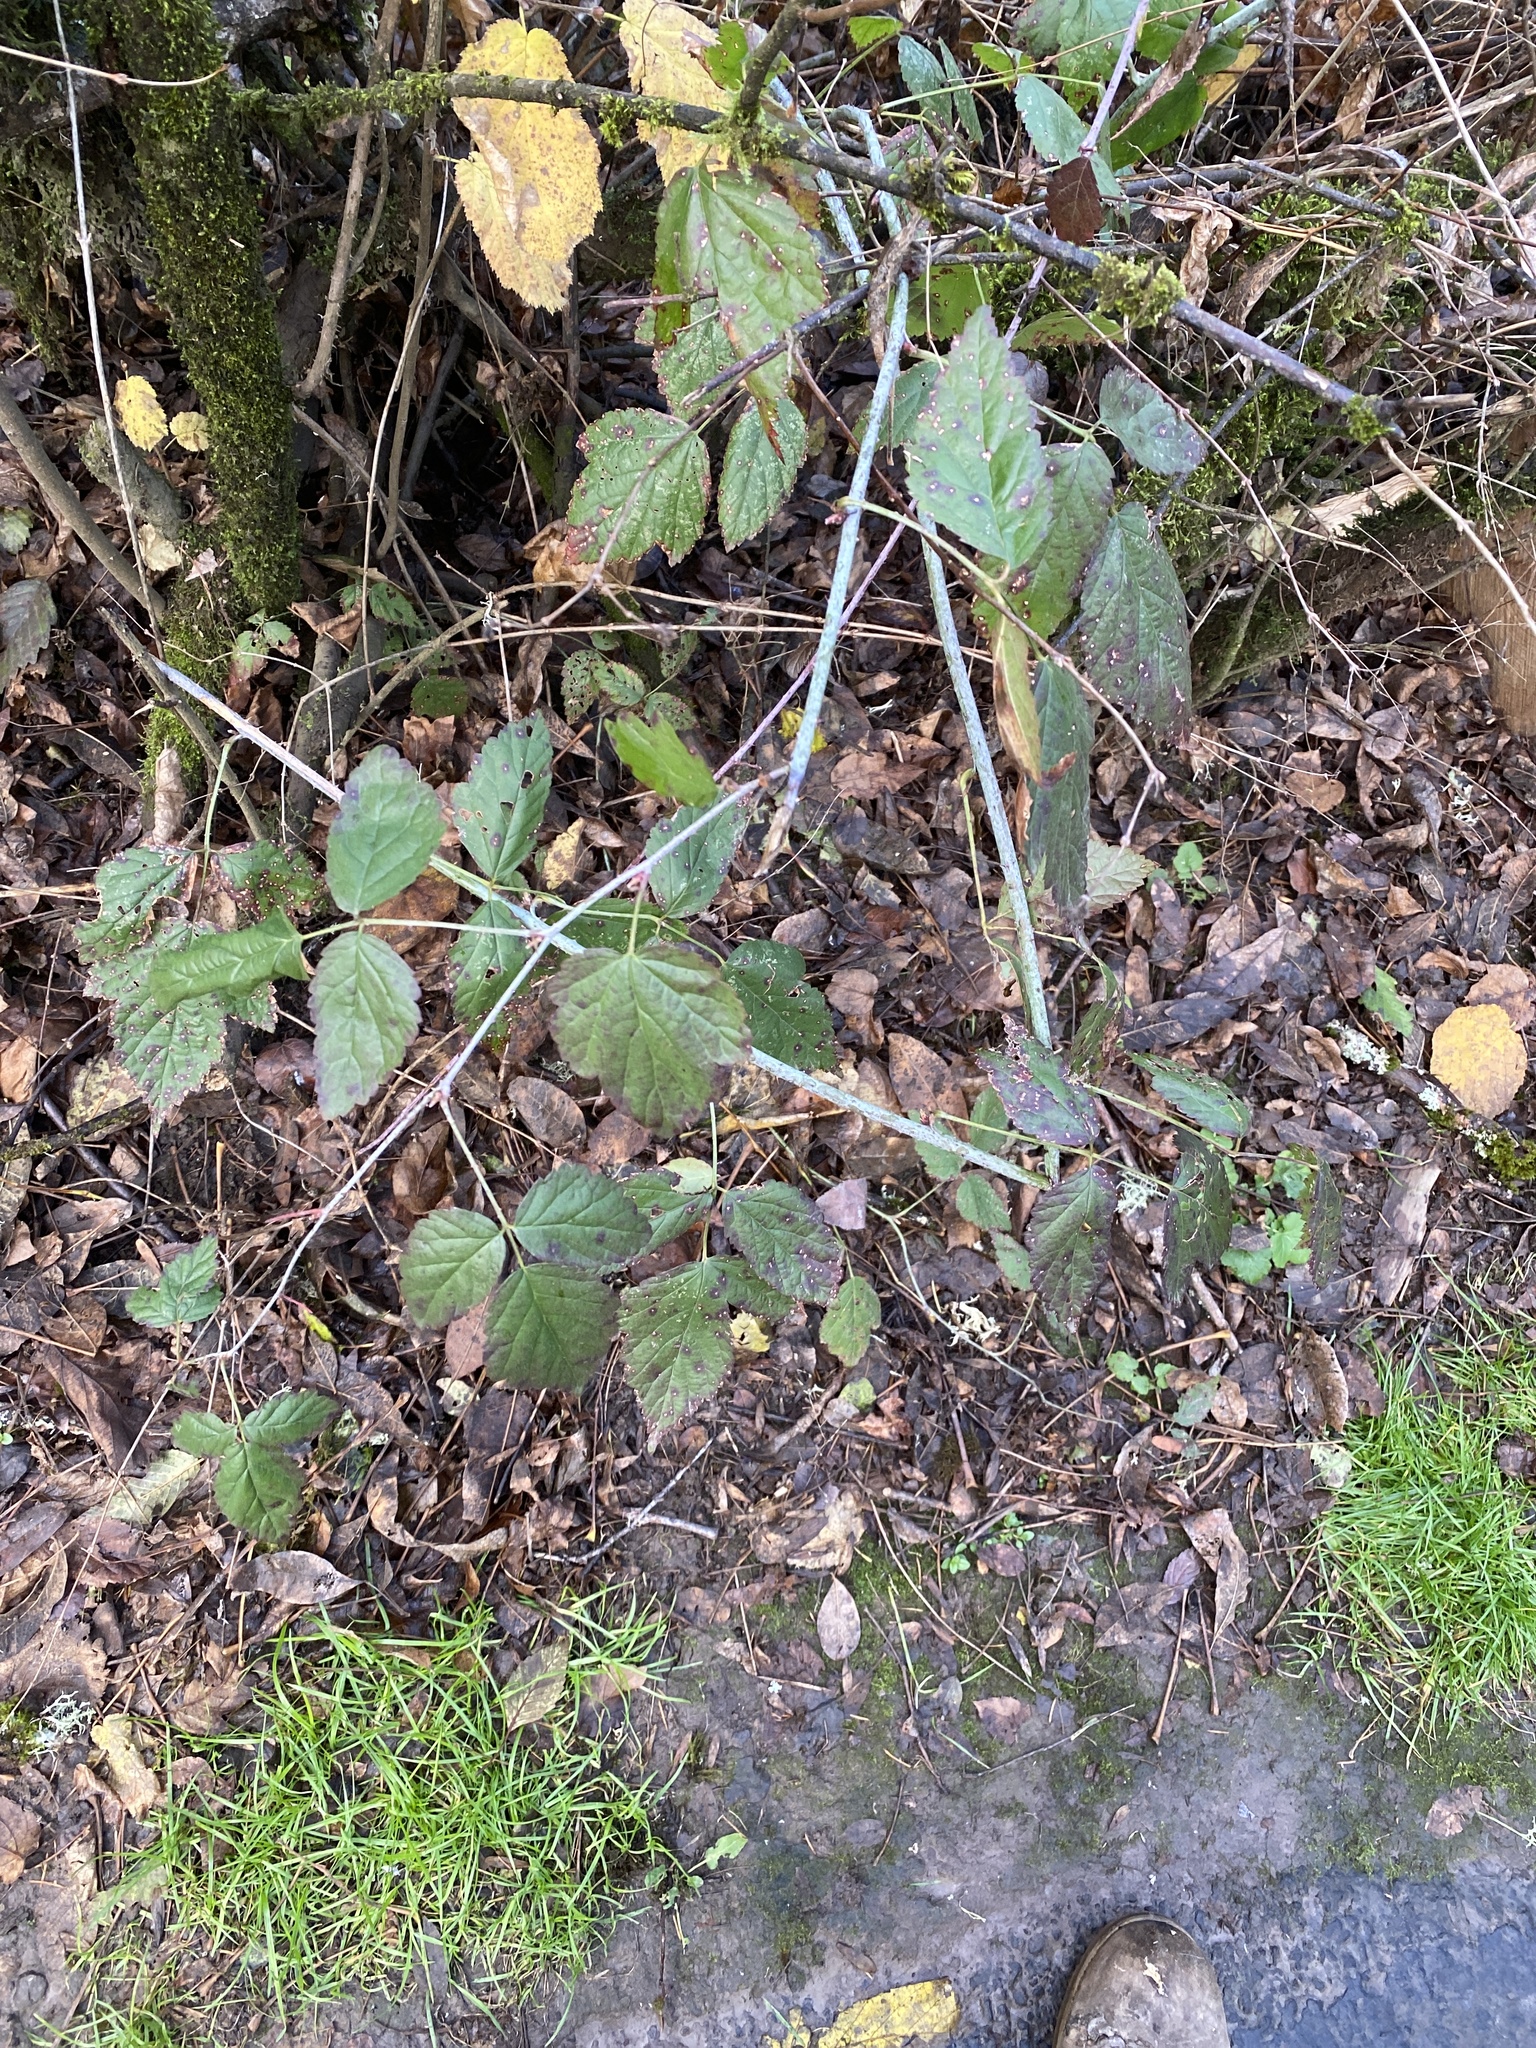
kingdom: Plantae
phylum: Tracheophyta
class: Magnoliopsida
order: Rosales
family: Rosaceae
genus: Rubus
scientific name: Rubus ursinus
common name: Pacific blackberry
